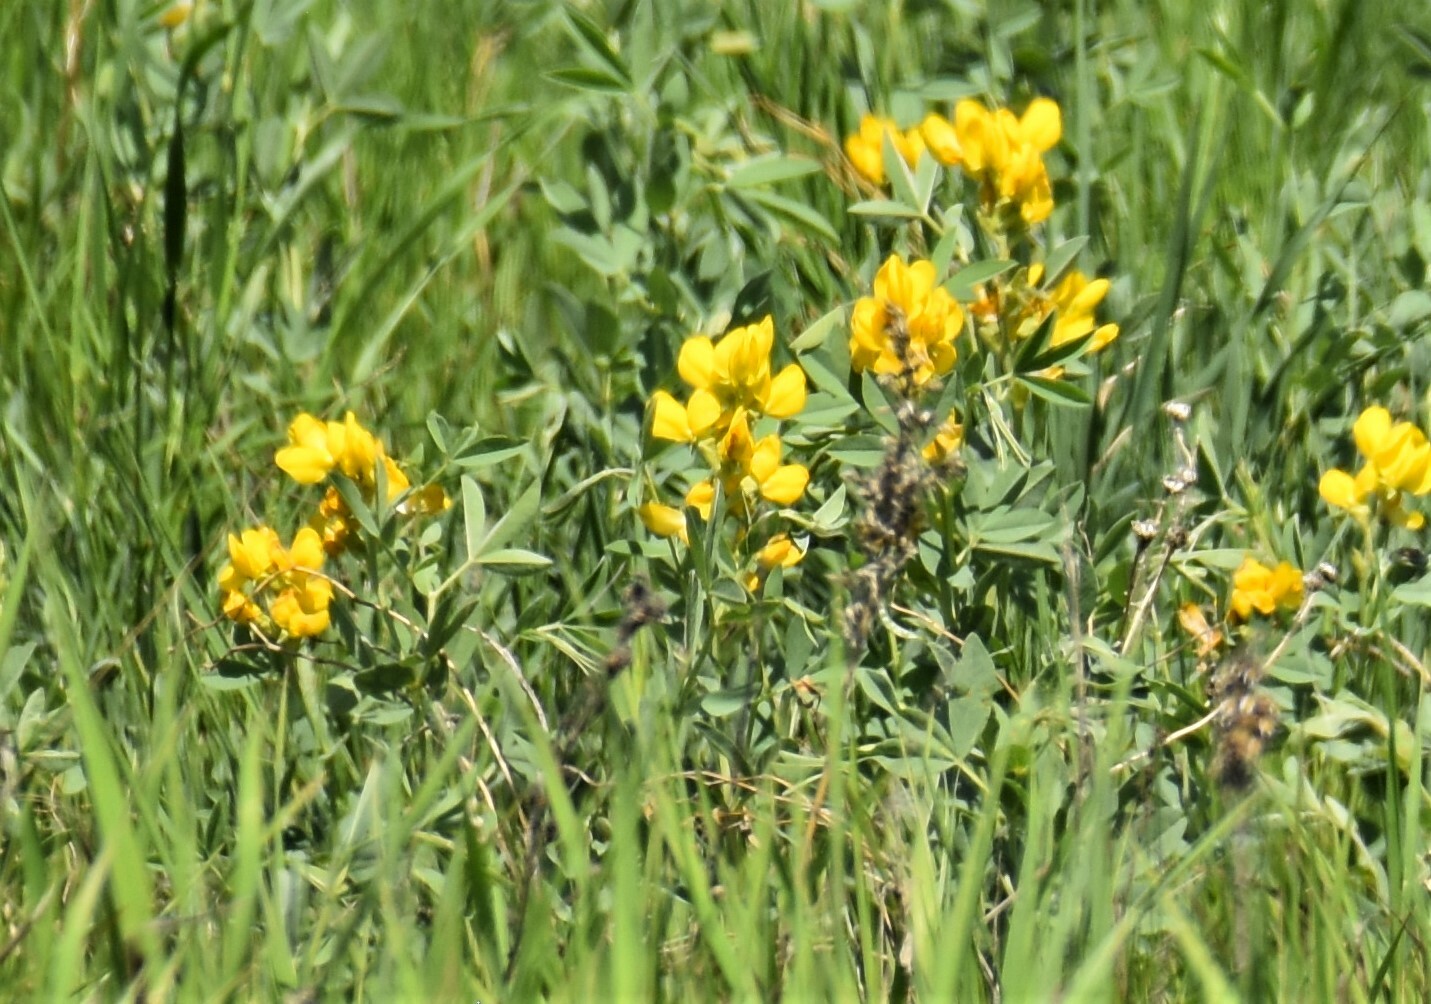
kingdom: Plantae
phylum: Tracheophyta
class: Magnoliopsida
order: Fabales
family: Fabaceae
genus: Thermopsis
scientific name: Thermopsis rhombifolia
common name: Circle-pod-pea
